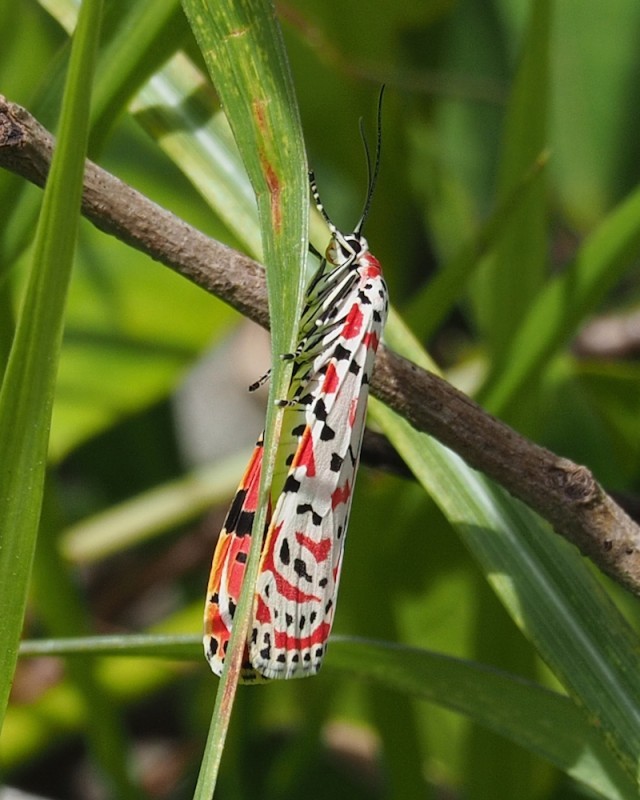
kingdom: Animalia
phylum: Arthropoda
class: Insecta
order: Lepidoptera
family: Erebidae
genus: Utetheisa
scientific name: Utetheisa ornatrix
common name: Beautiful utetheisa
